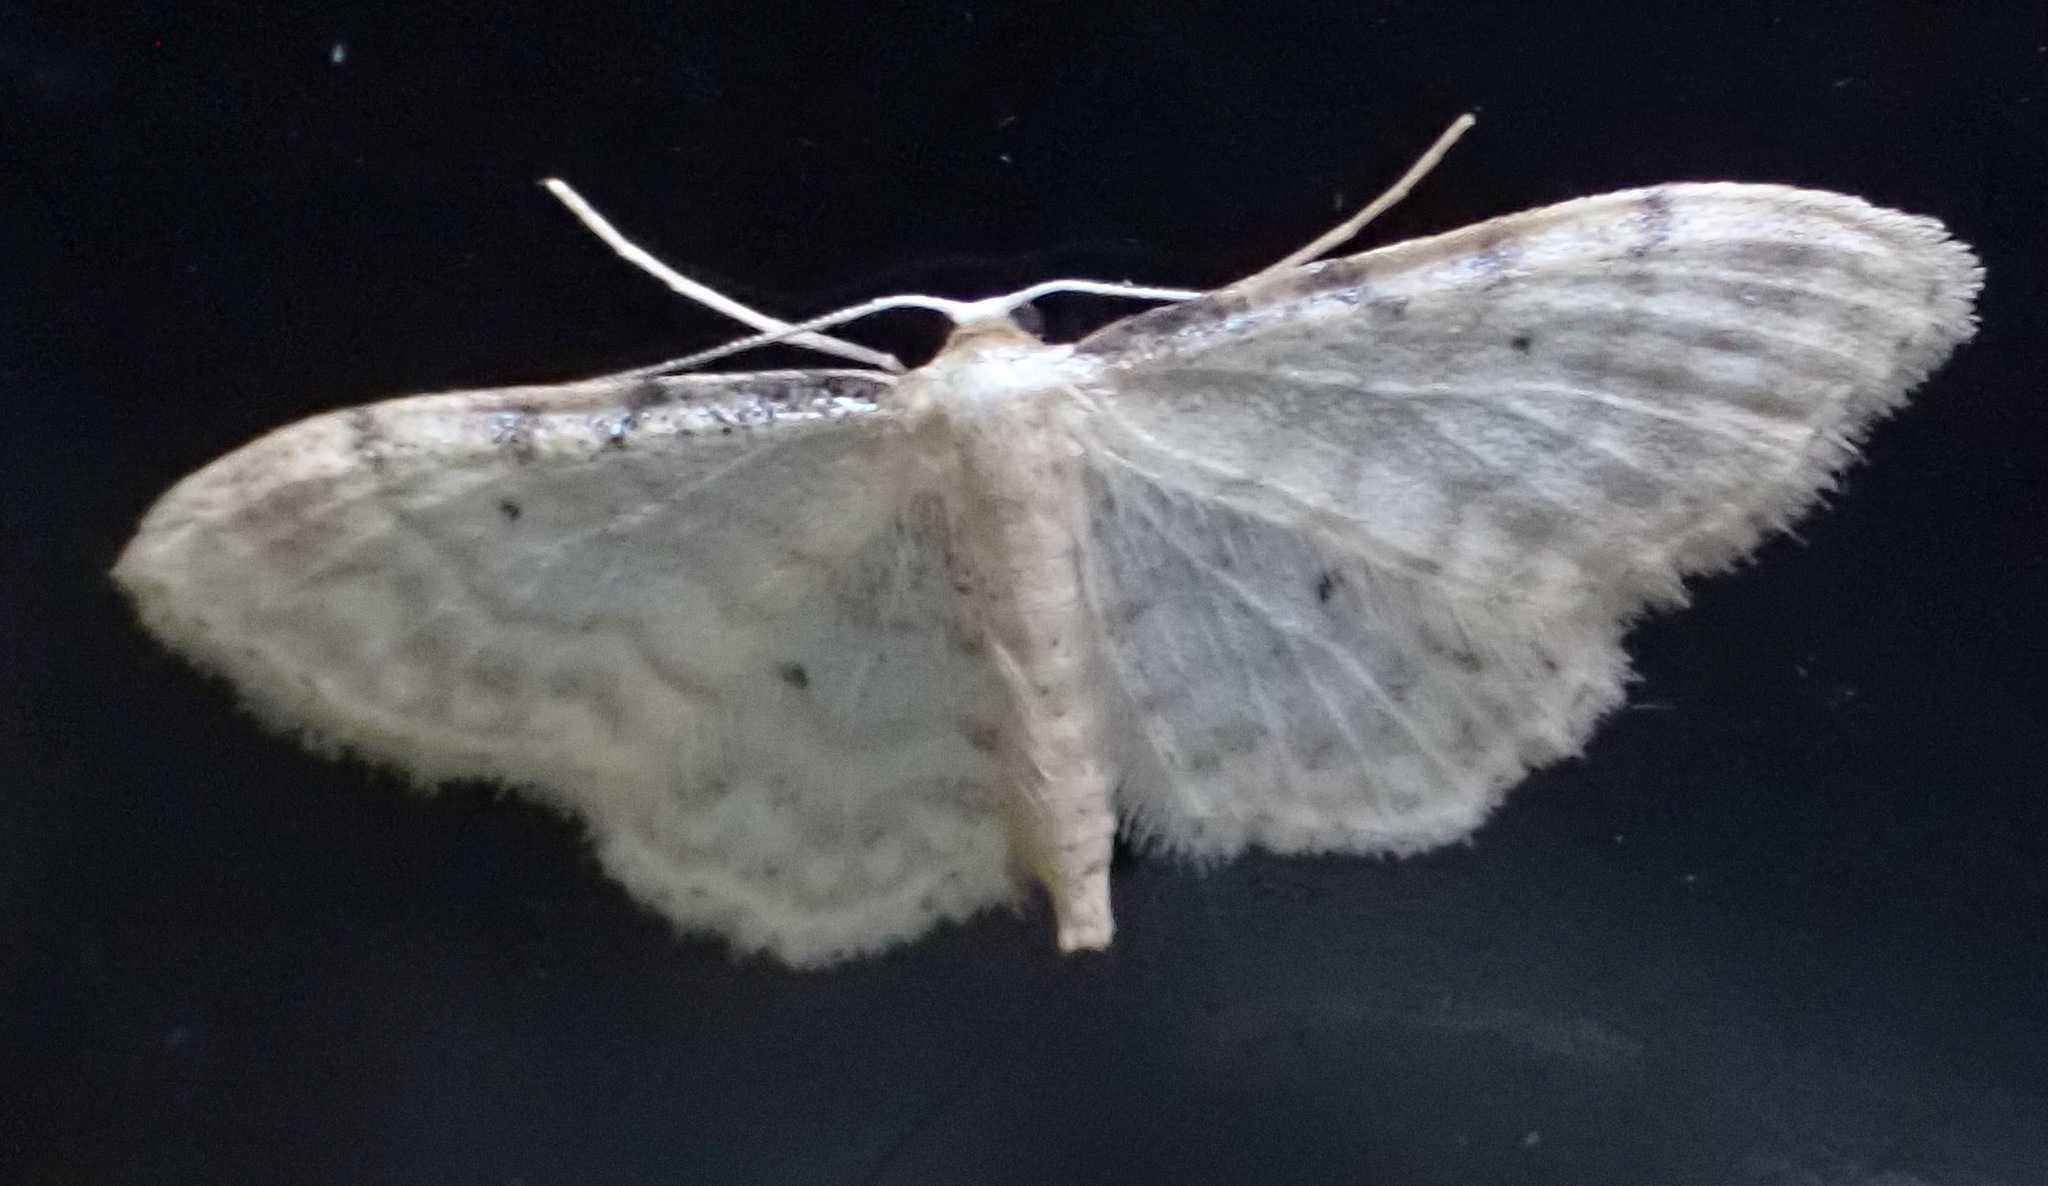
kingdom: Animalia
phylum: Arthropoda
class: Insecta
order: Lepidoptera
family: Geometridae
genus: Idaea
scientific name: Idaea fuscovenosa
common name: Dwarf cream wave
